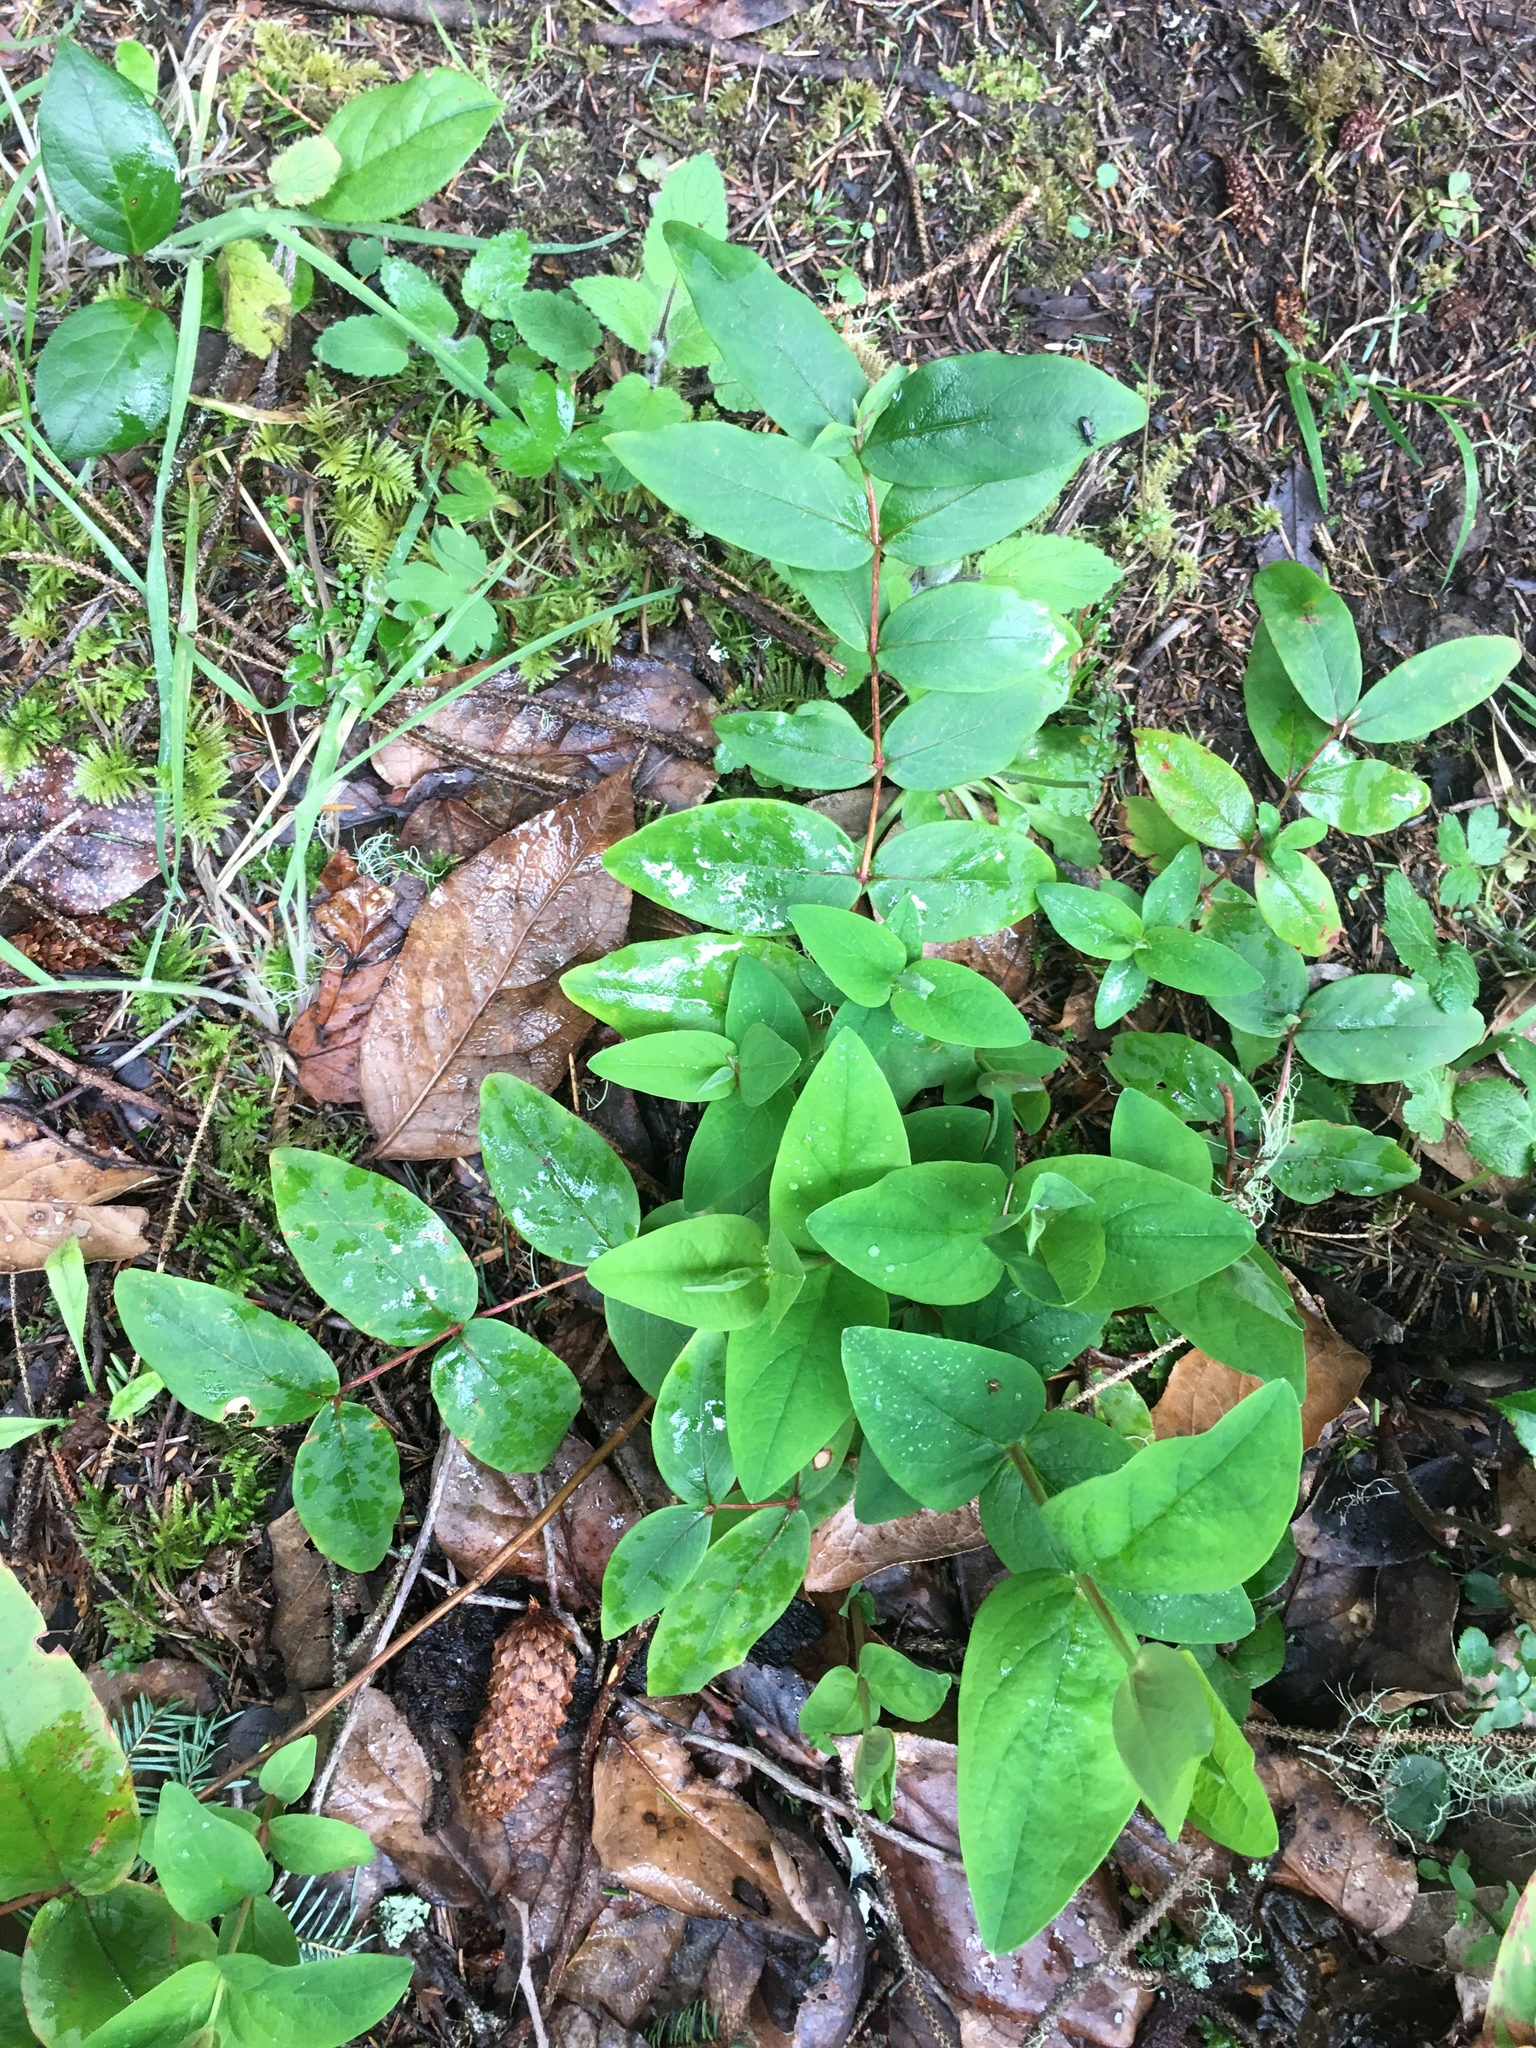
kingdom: Plantae
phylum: Tracheophyta
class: Magnoliopsida
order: Malpighiales
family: Hypericaceae
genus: Hypericum
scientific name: Hypericum androsaemum
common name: Sweet-amber
